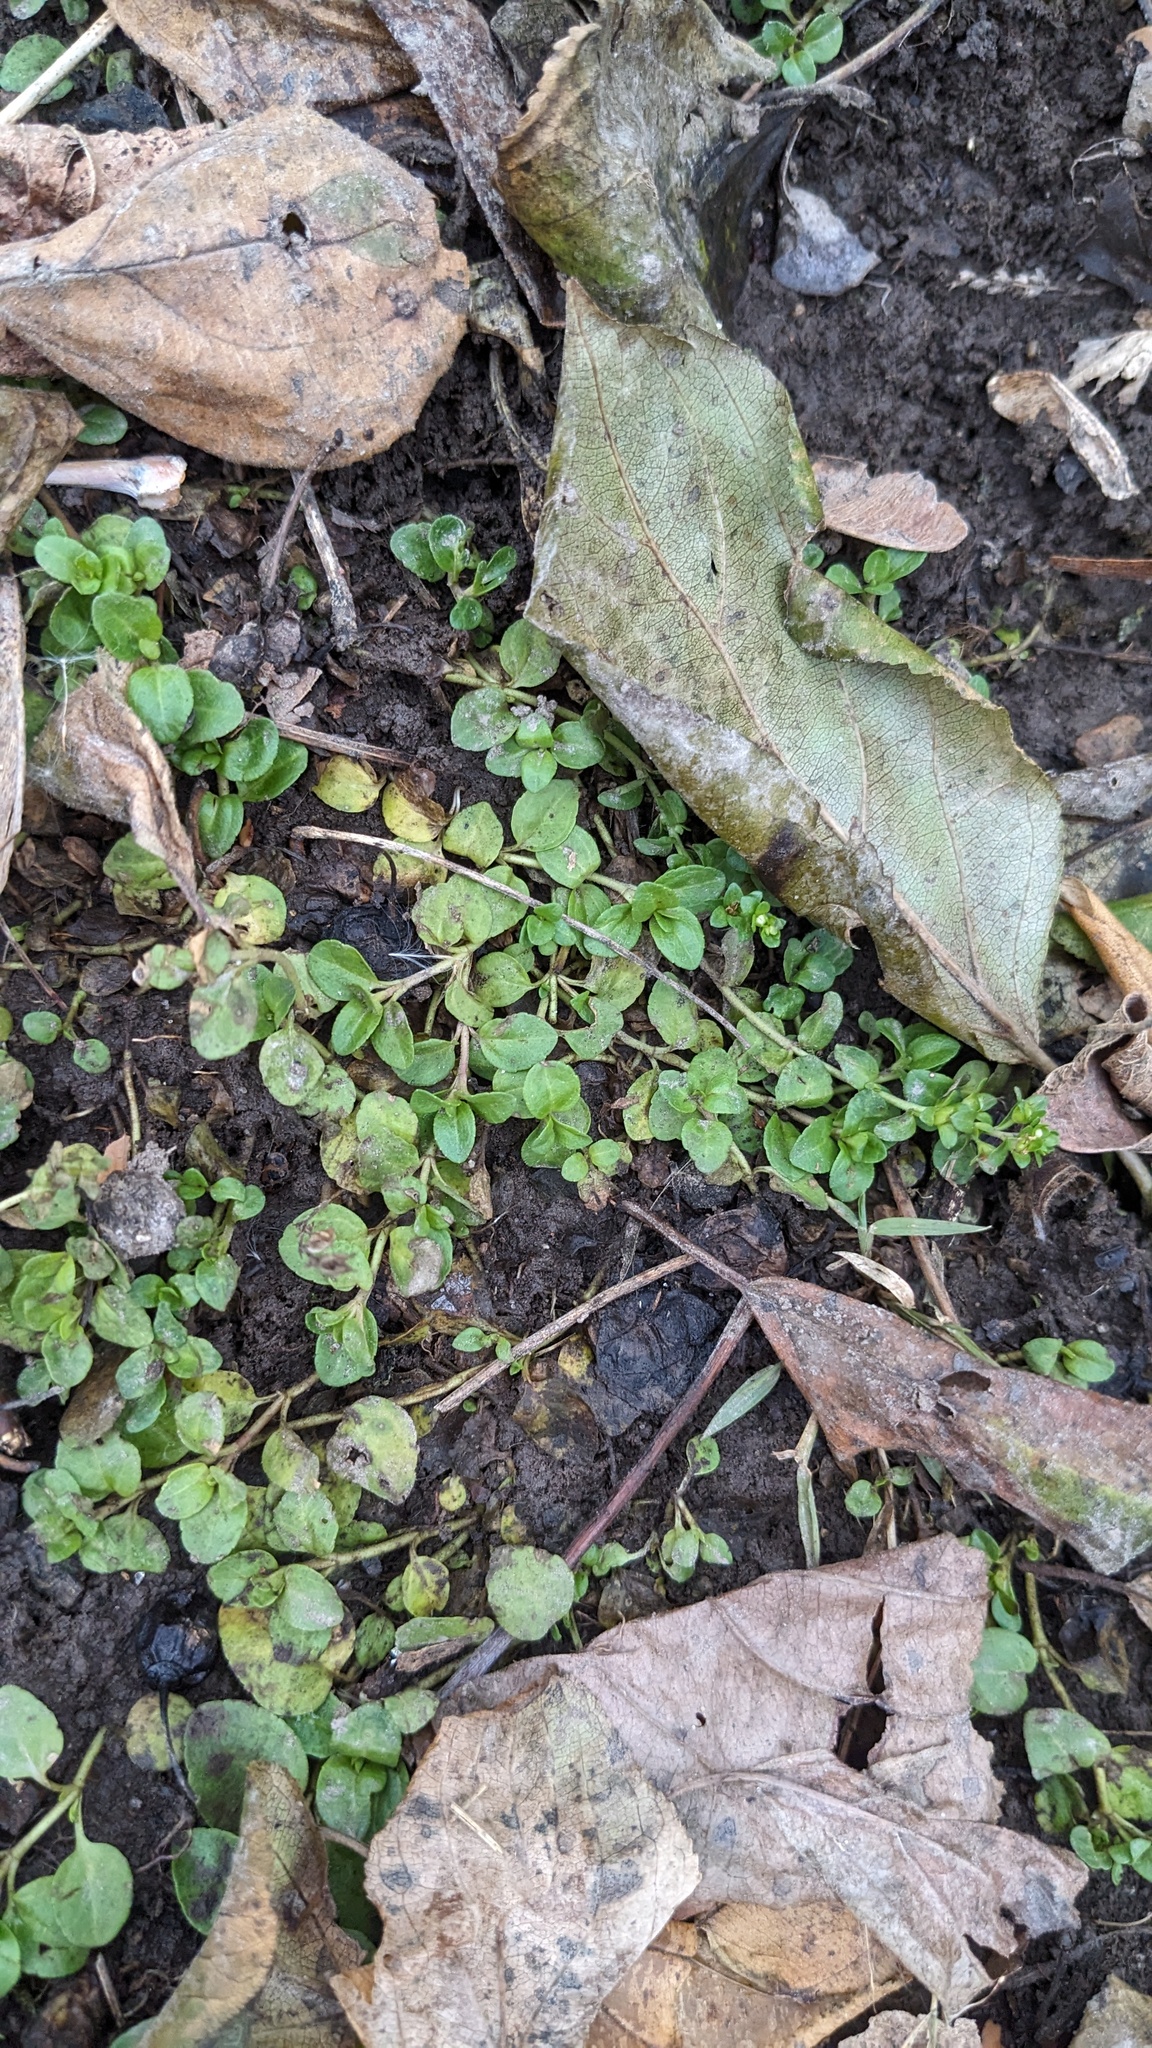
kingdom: Plantae
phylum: Tracheophyta
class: Magnoliopsida
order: Lamiales
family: Plantaginaceae
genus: Veronica
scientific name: Veronica serpyllifolia
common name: Thyme-leaved speedwell
